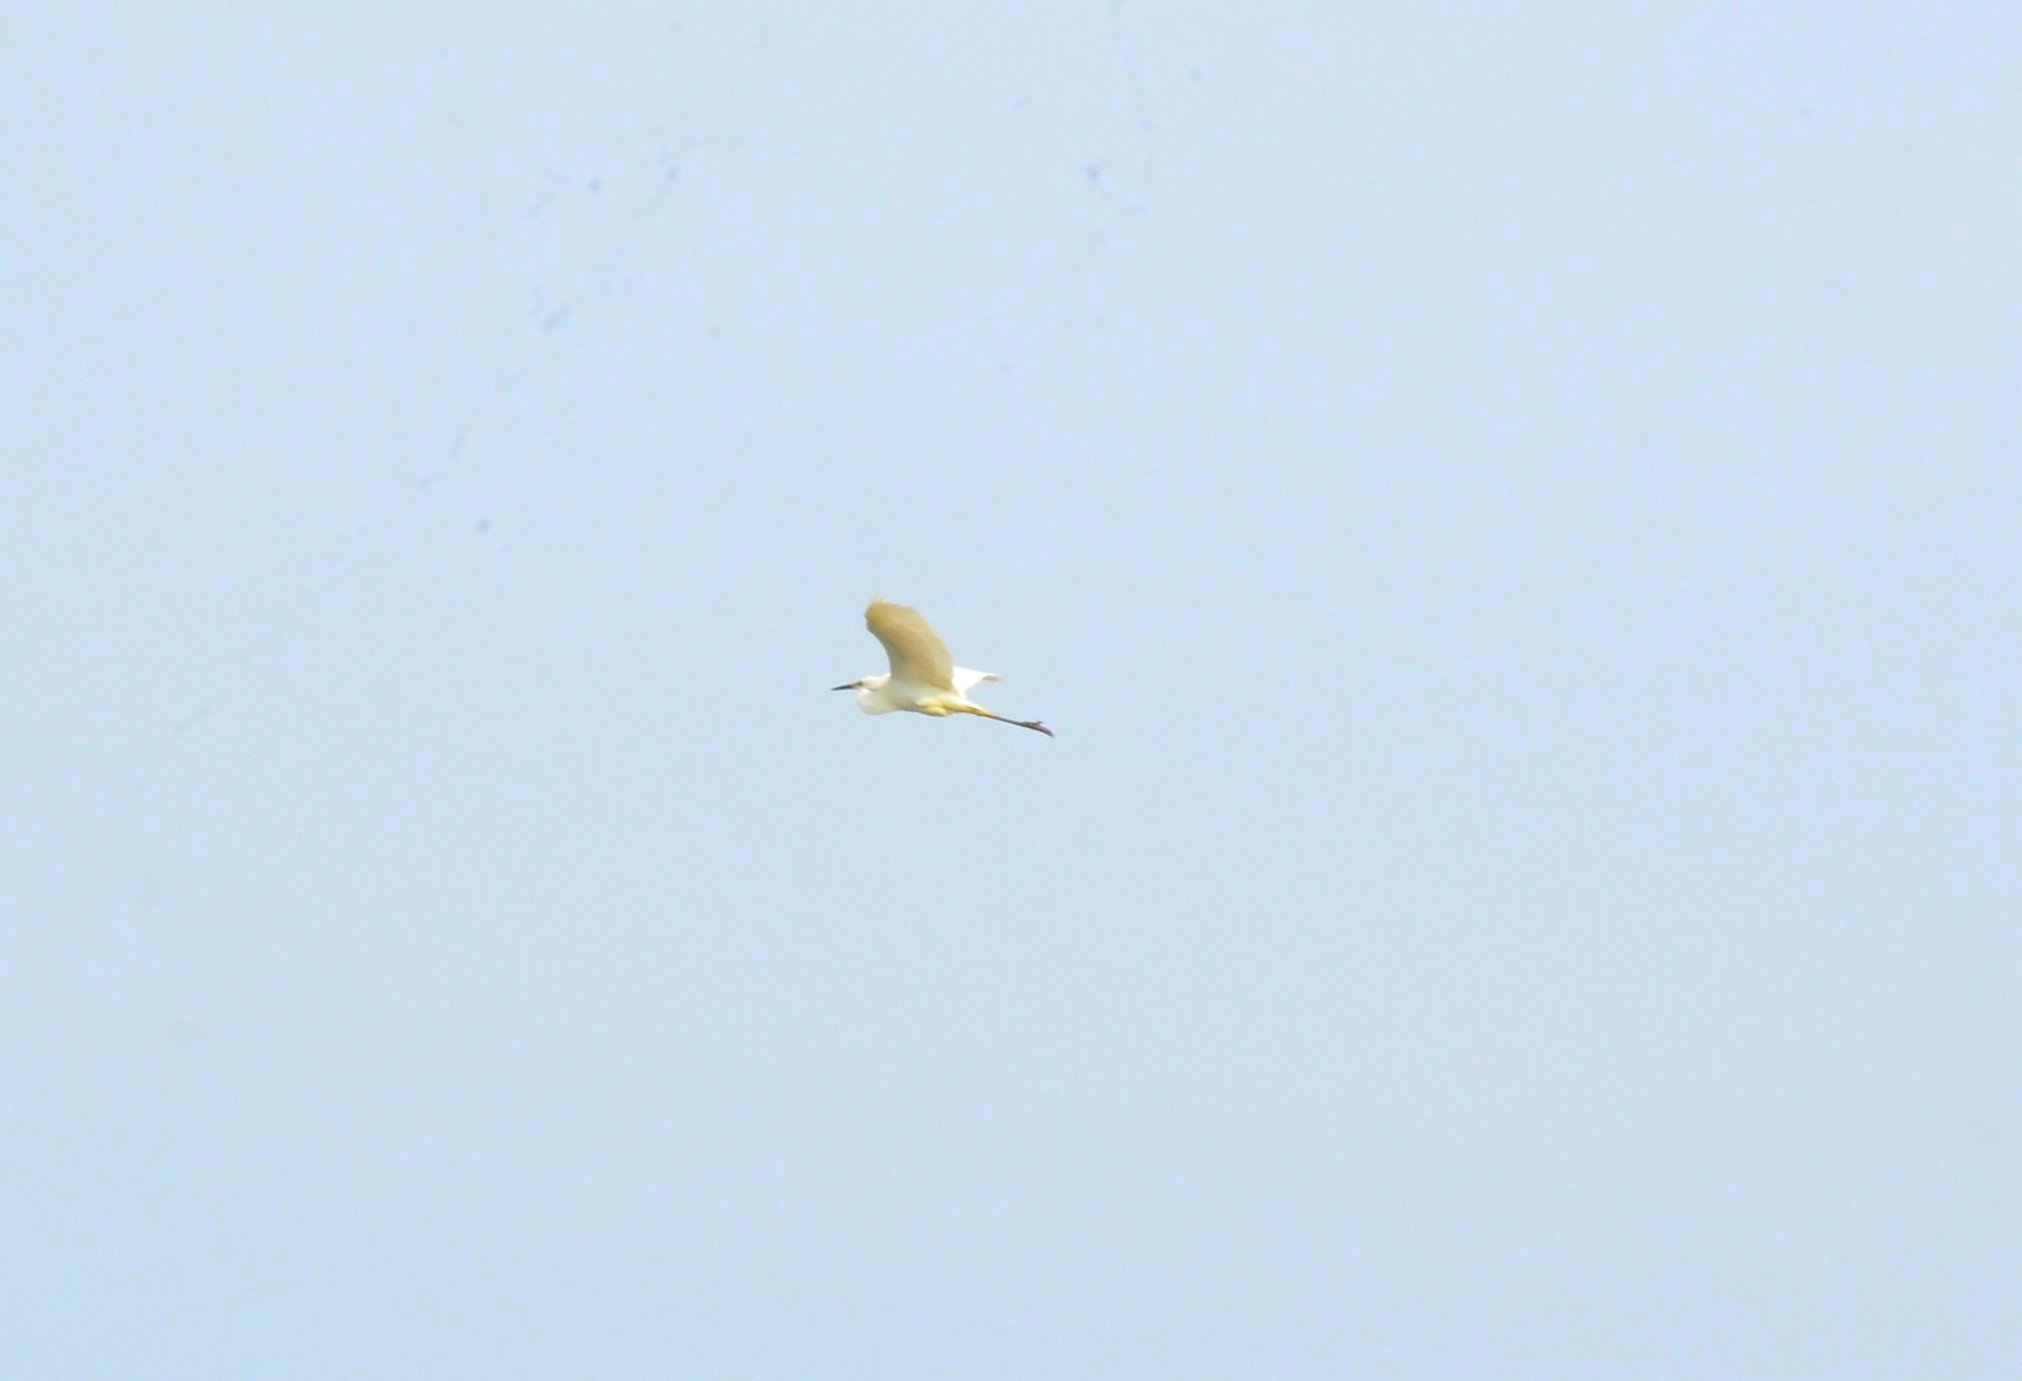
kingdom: Animalia
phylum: Chordata
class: Aves
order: Pelecaniformes
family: Ardeidae
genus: Egretta
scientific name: Egretta garzetta
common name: Little egret
